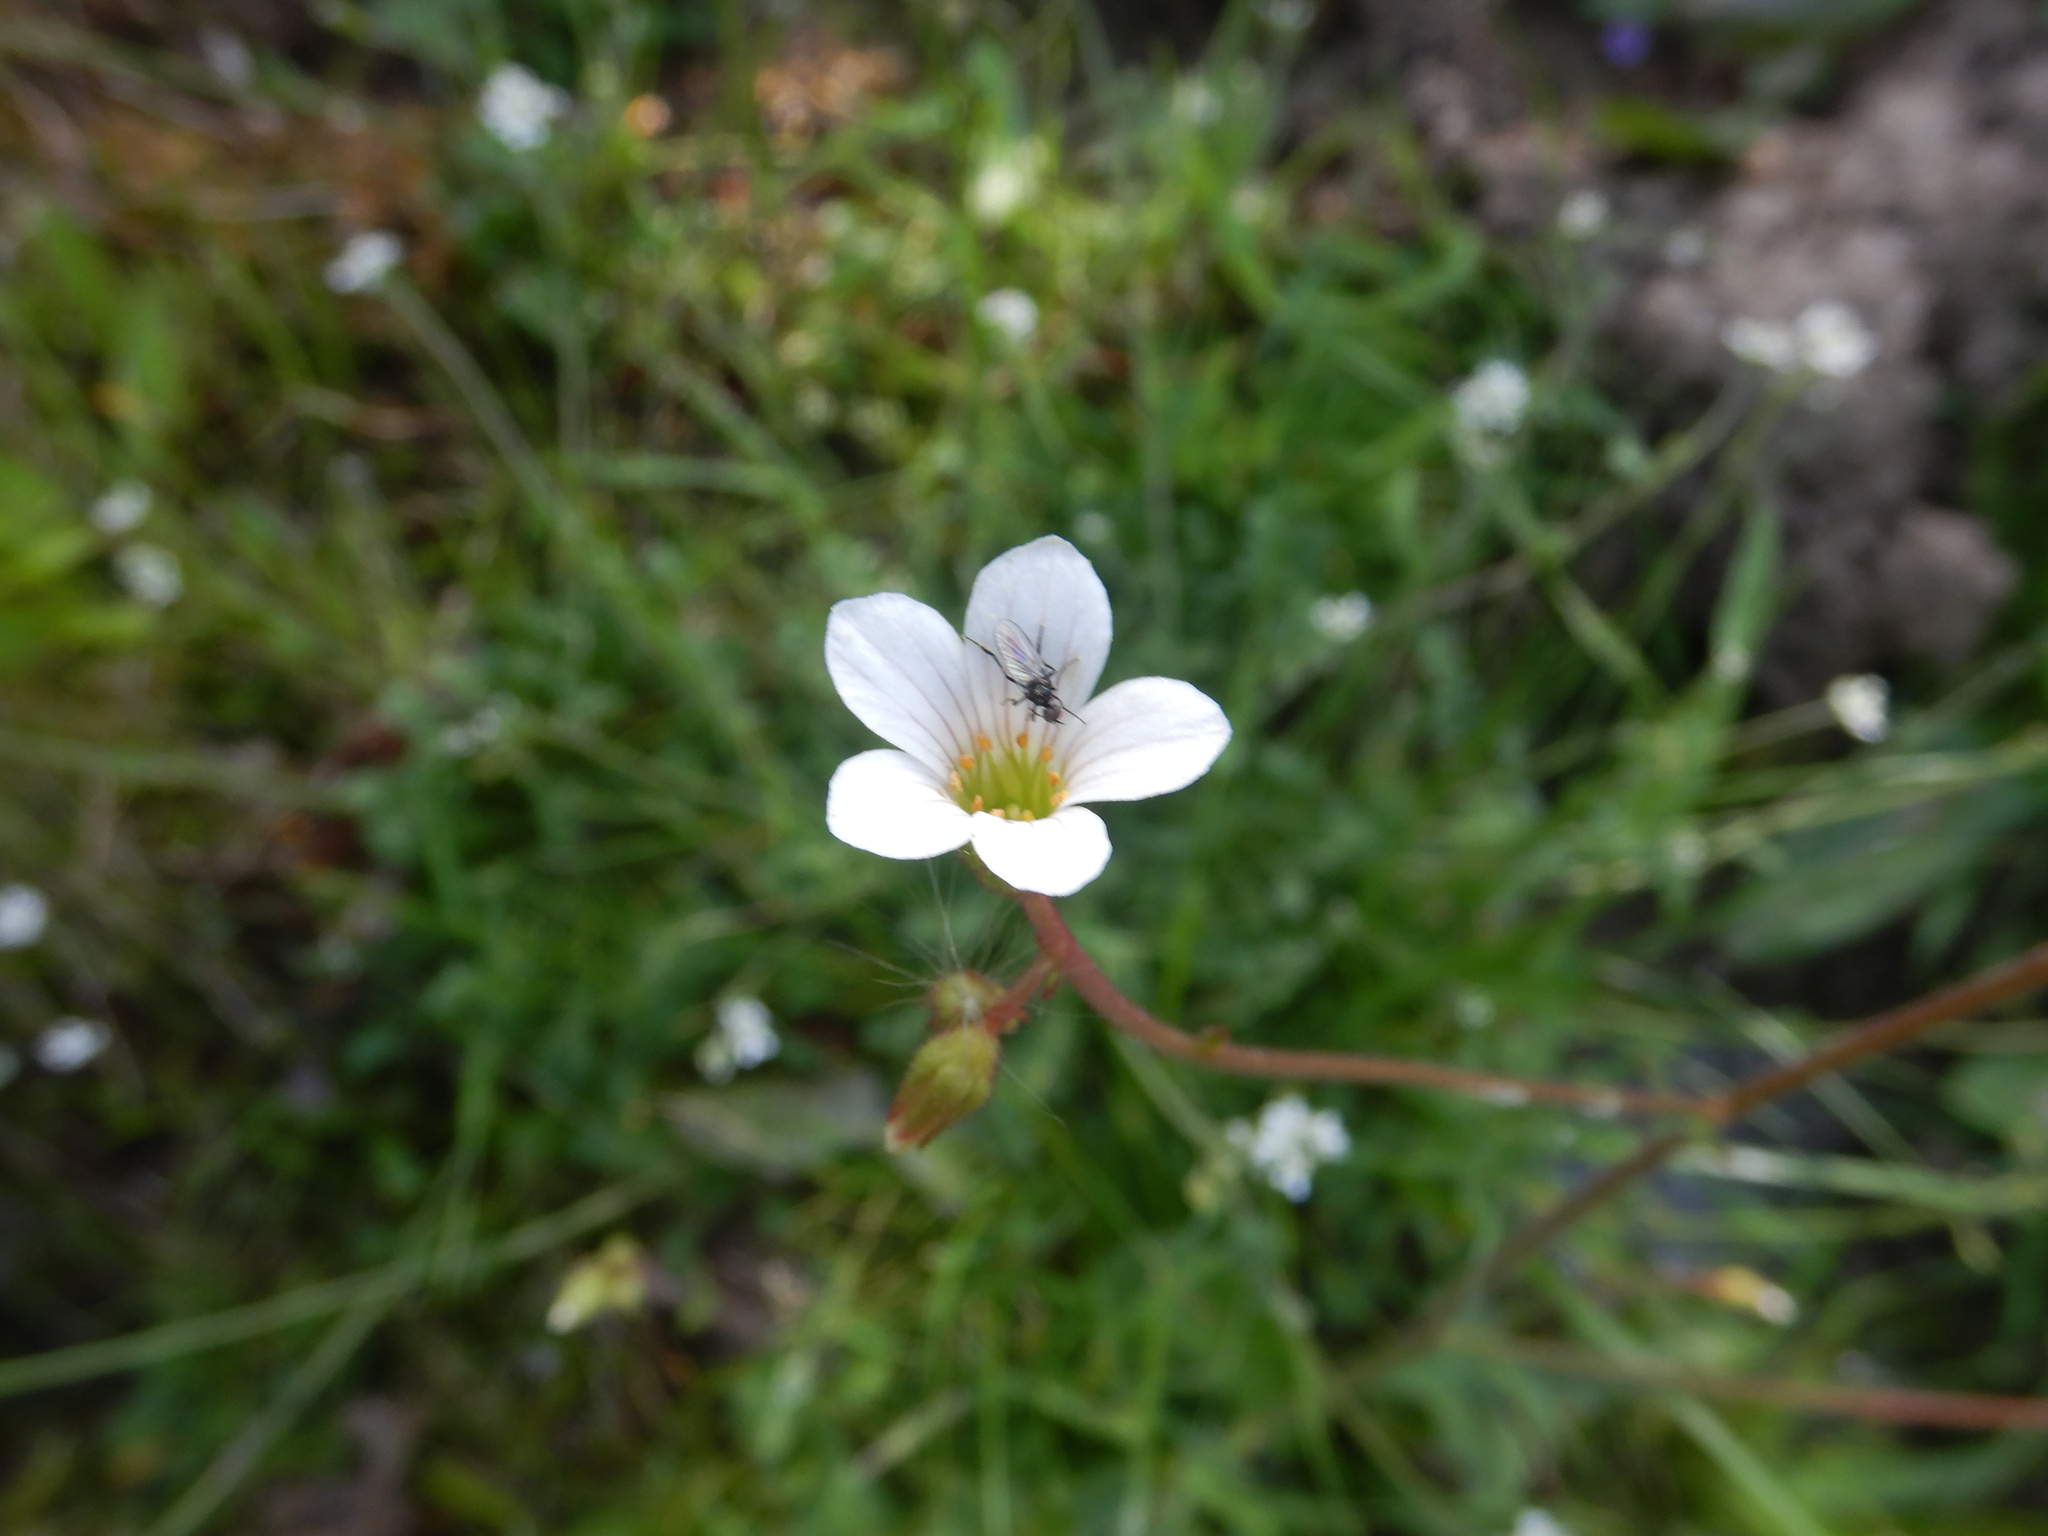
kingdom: Plantae
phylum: Tracheophyta
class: Magnoliopsida
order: Saxifragales
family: Saxifragaceae
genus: Saxifraga
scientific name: Saxifraga granulata
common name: Meadow saxifrage
